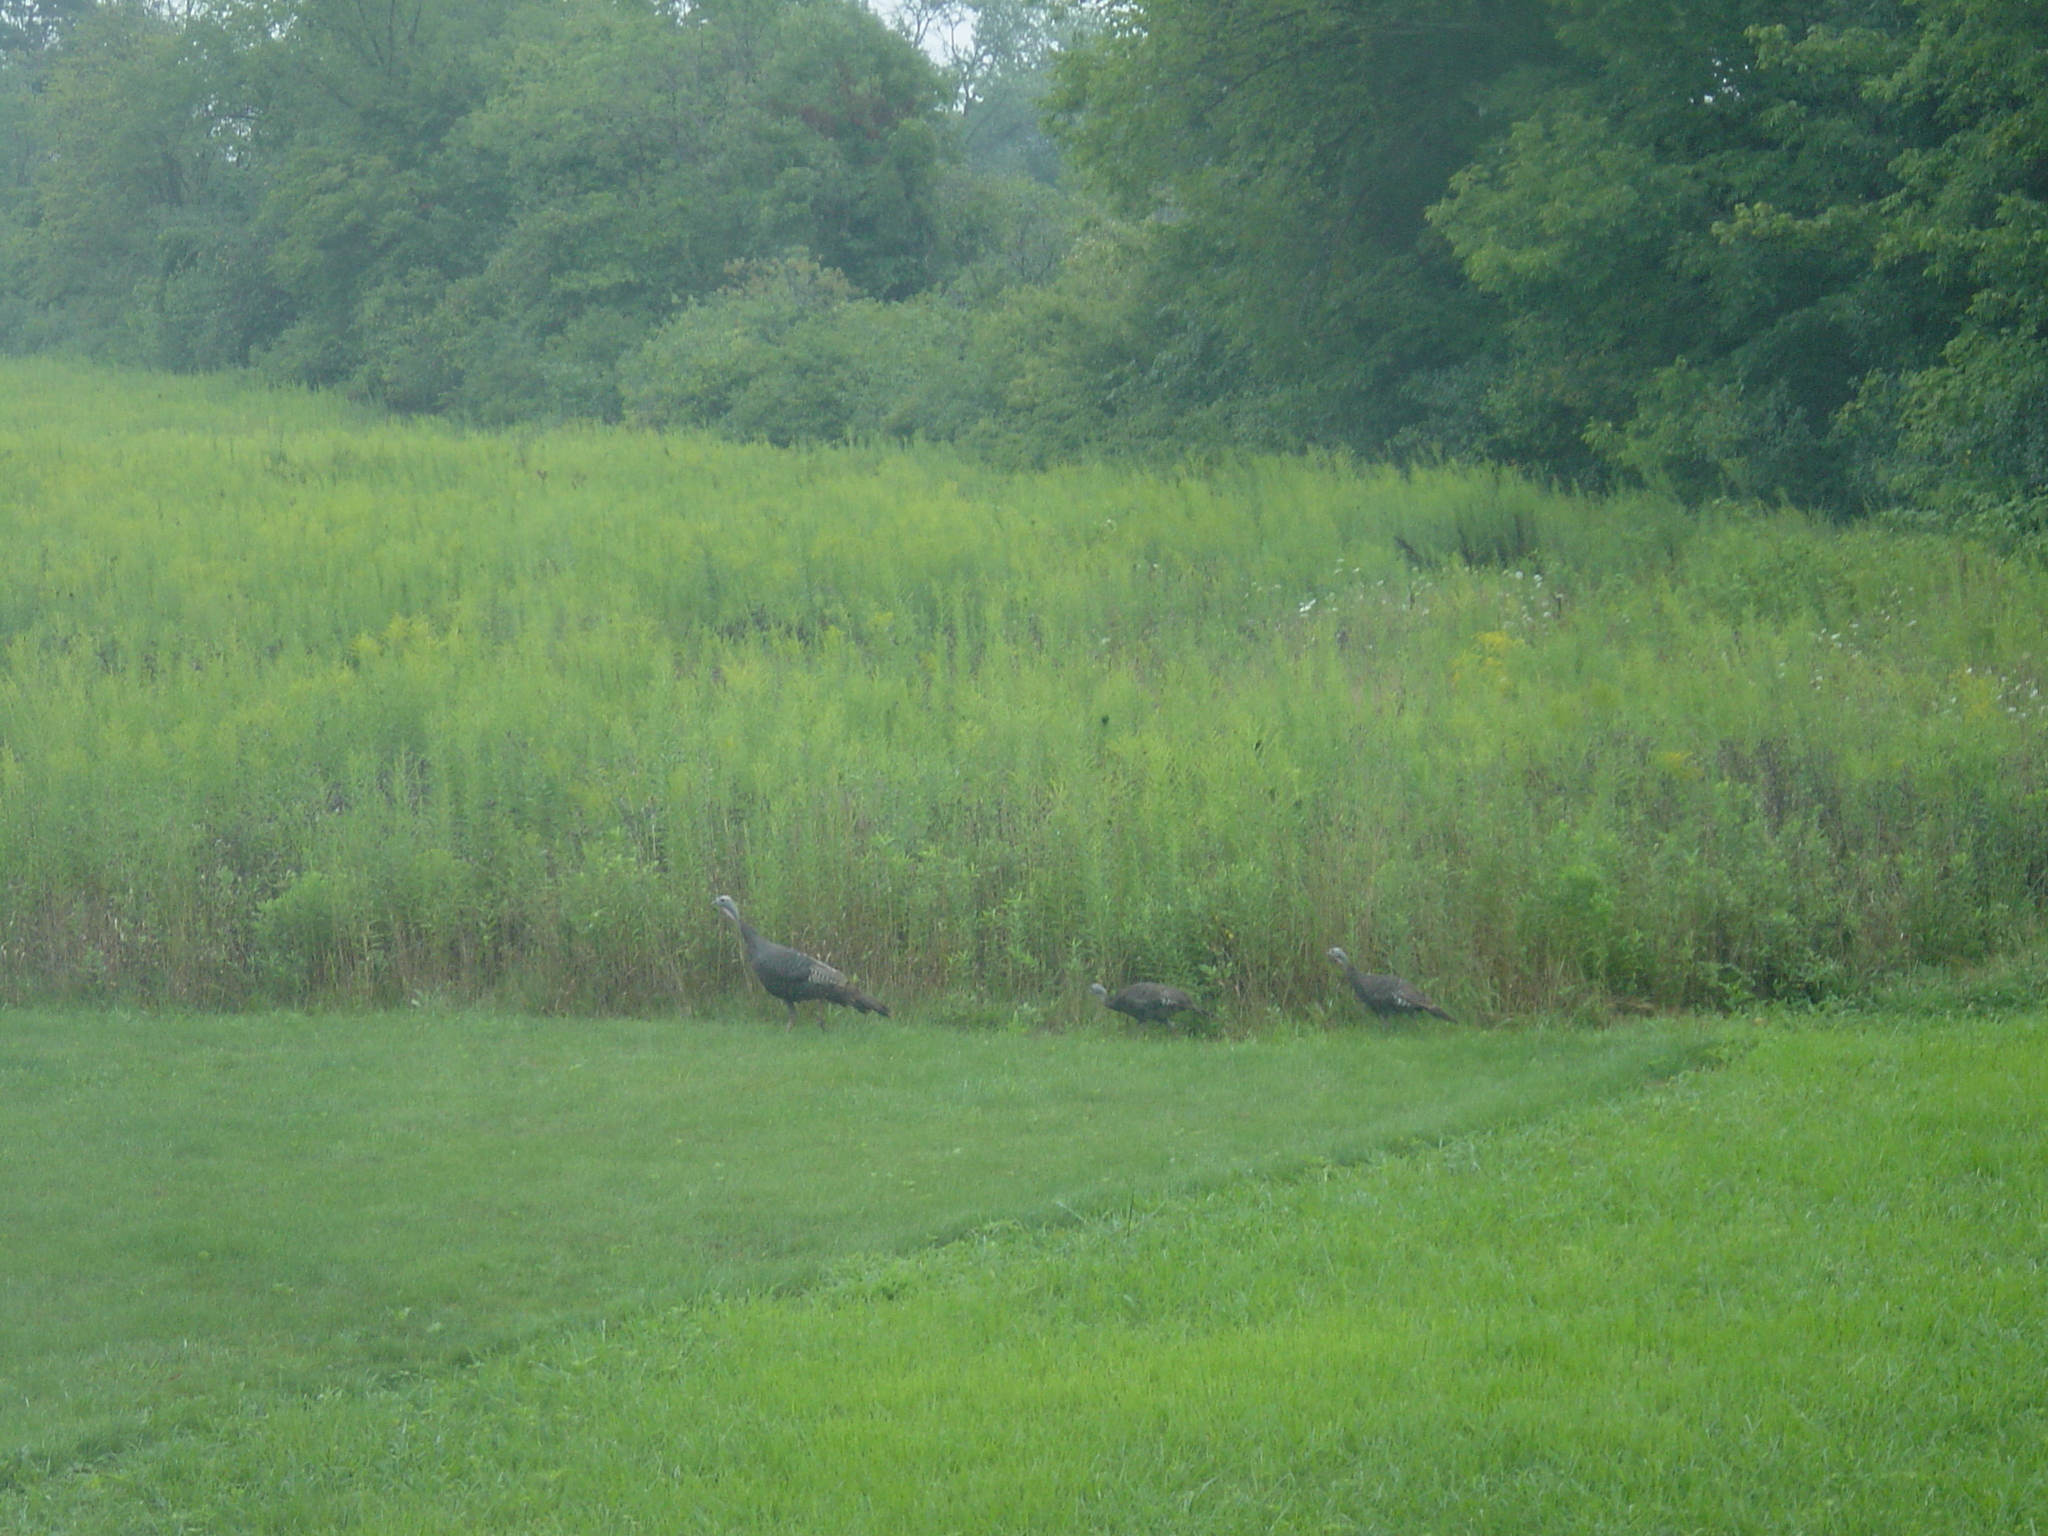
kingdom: Animalia
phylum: Chordata
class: Aves
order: Galliformes
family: Phasianidae
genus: Meleagris
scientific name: Meleagris gallopavo
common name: Wild turkey
